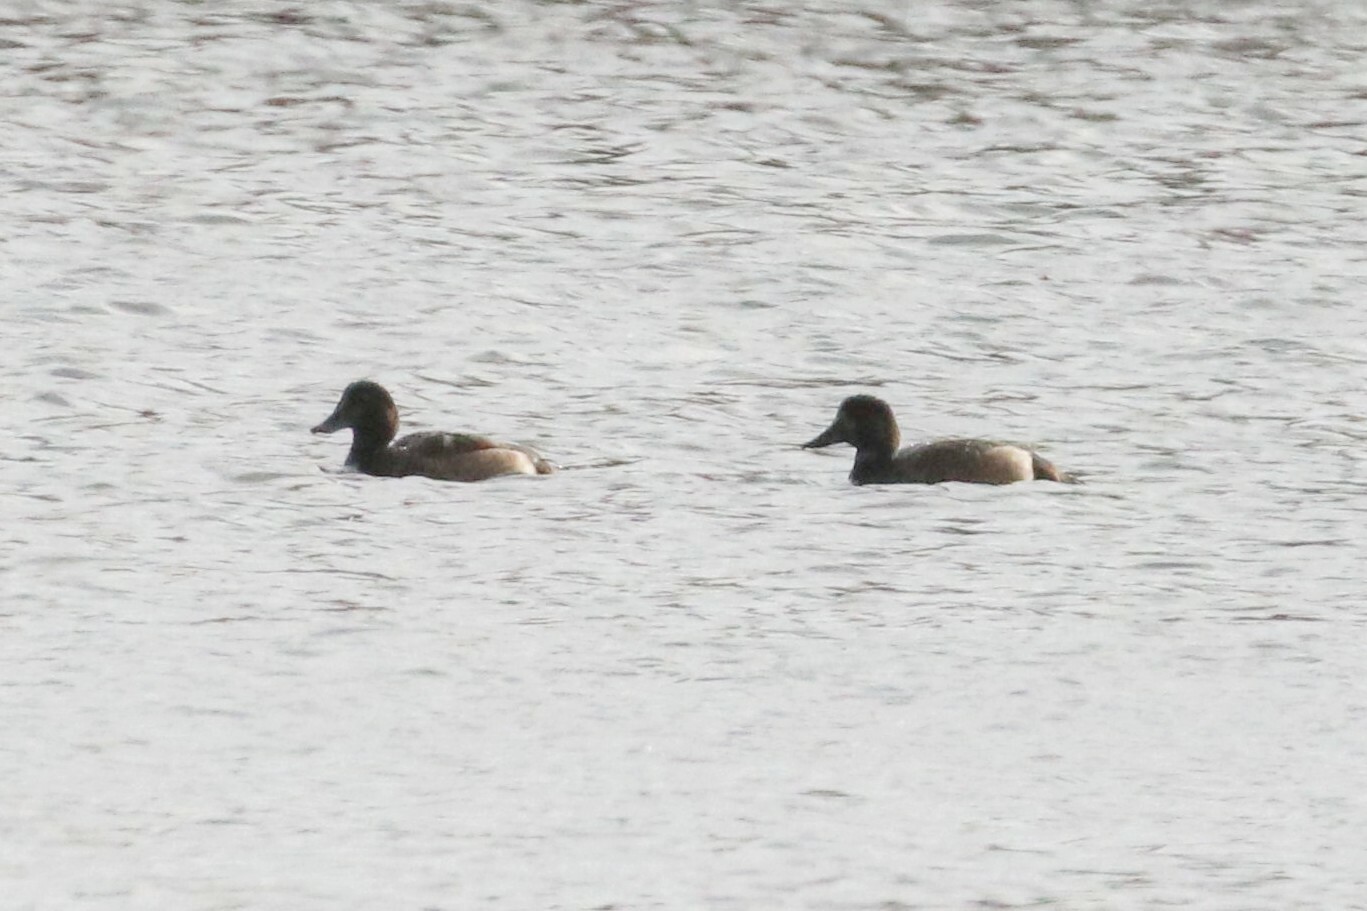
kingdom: Animalia
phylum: Chordata
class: Aves
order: Anseriformes
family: Anatidae
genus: Aythya
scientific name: Aythya marila
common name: Greater scaup
